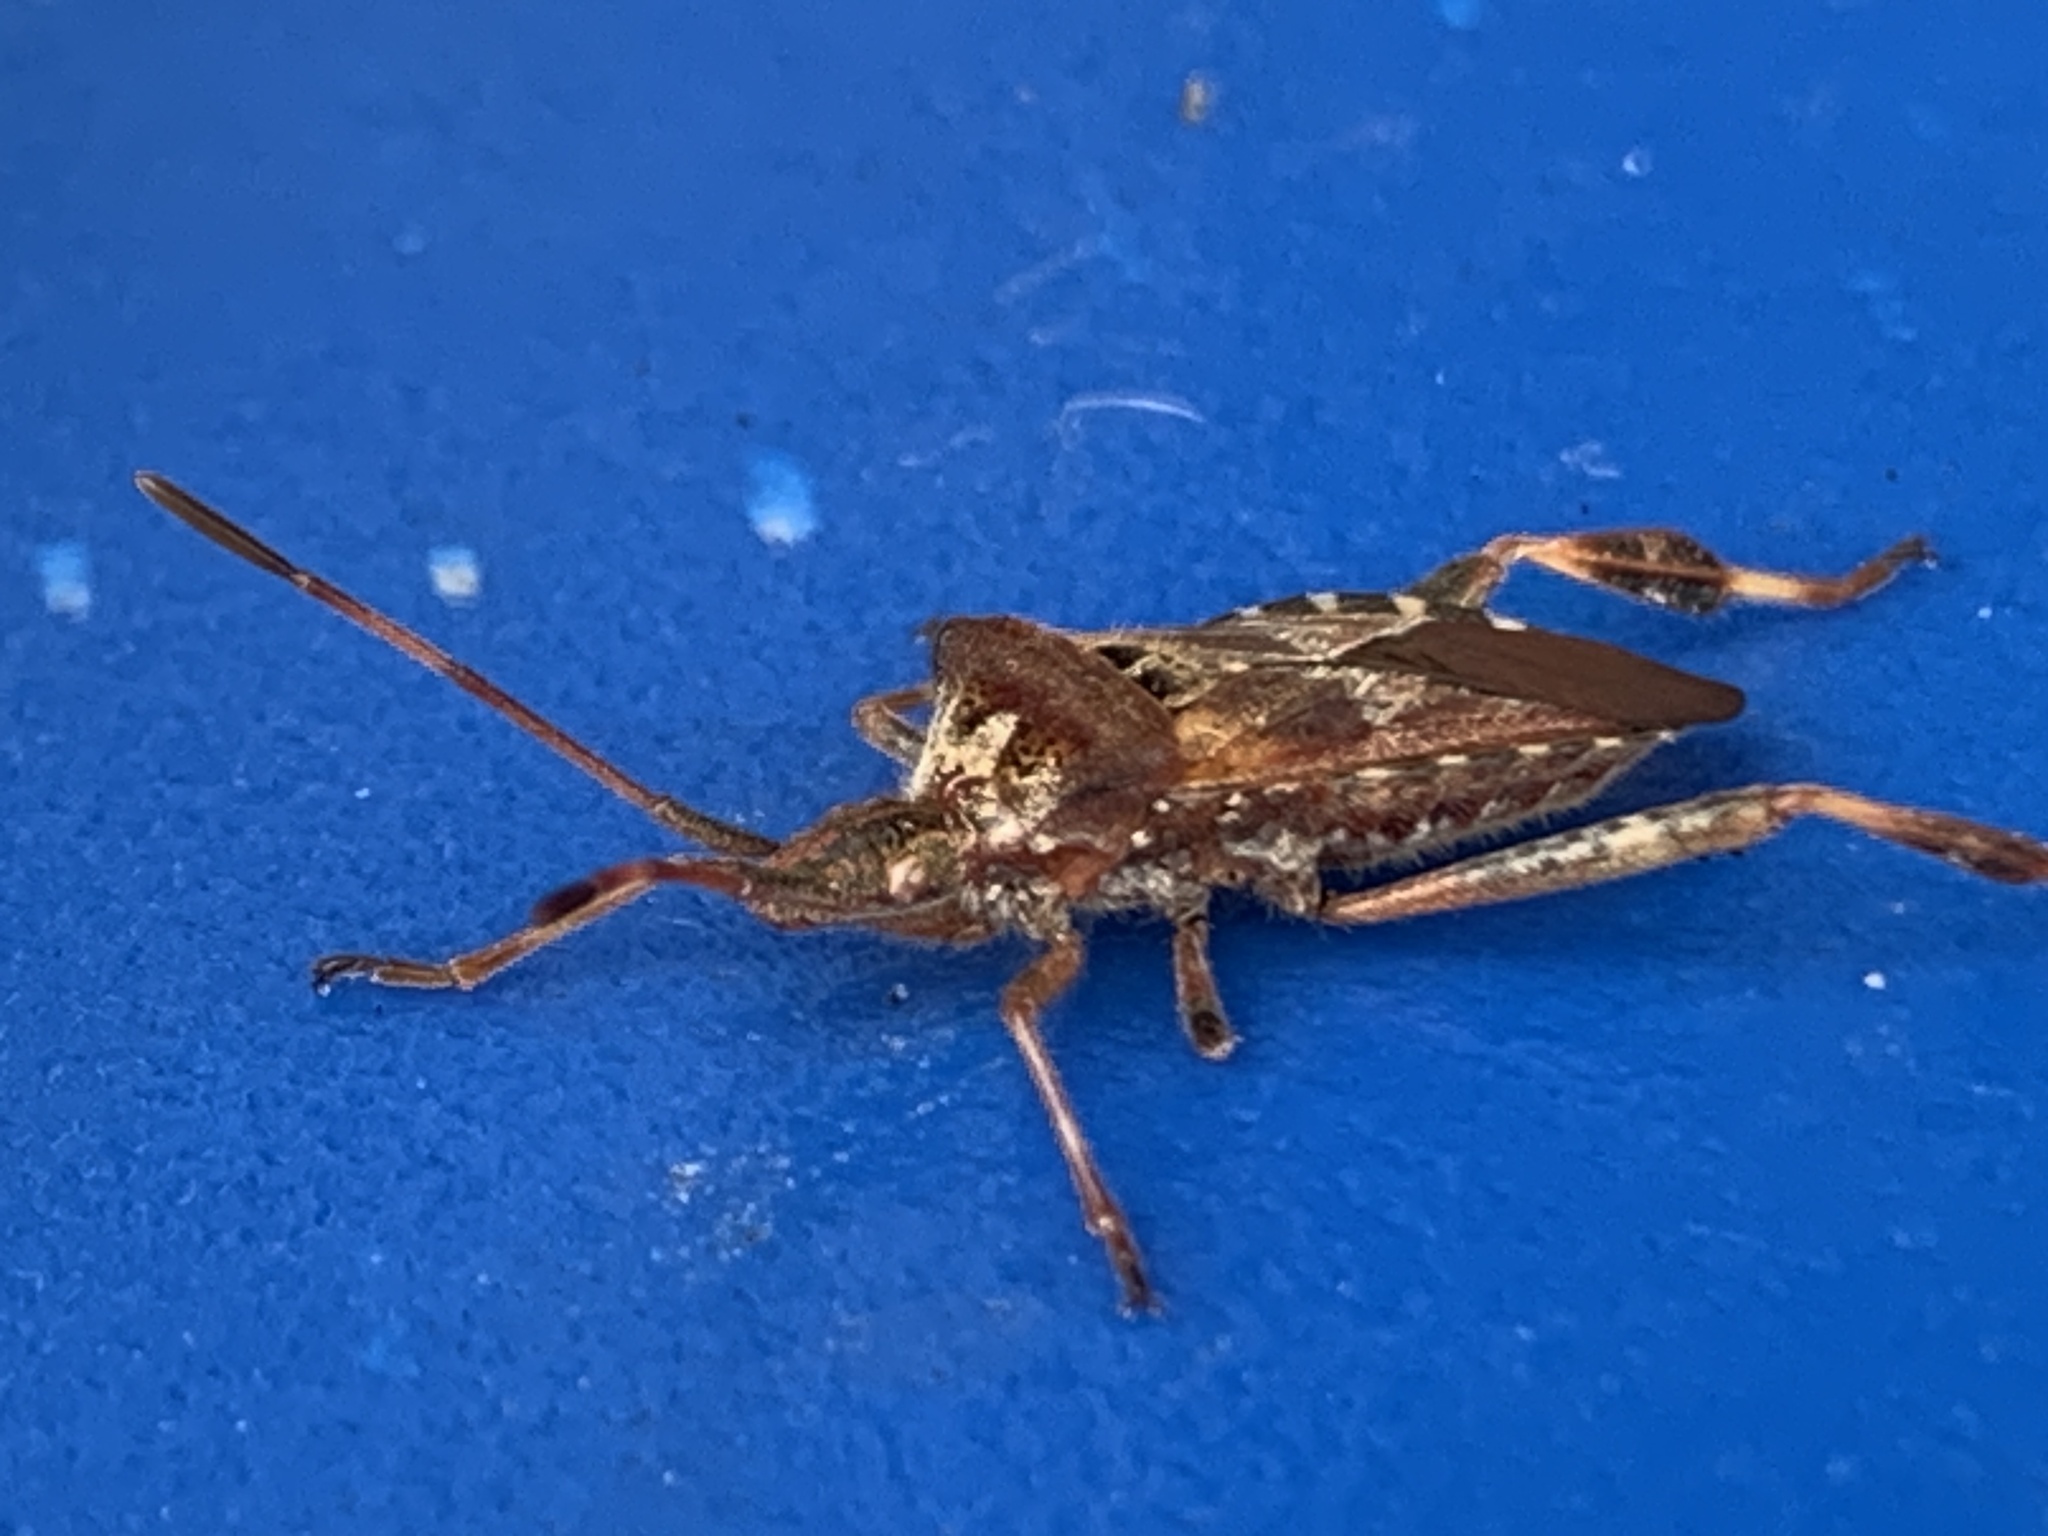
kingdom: Animalia
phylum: Arthropoda
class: Insecta
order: Hemiptera
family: Coreidae
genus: Leptoglossus
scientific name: Leptoglossus occidentalis
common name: Western conifer-seed bug
